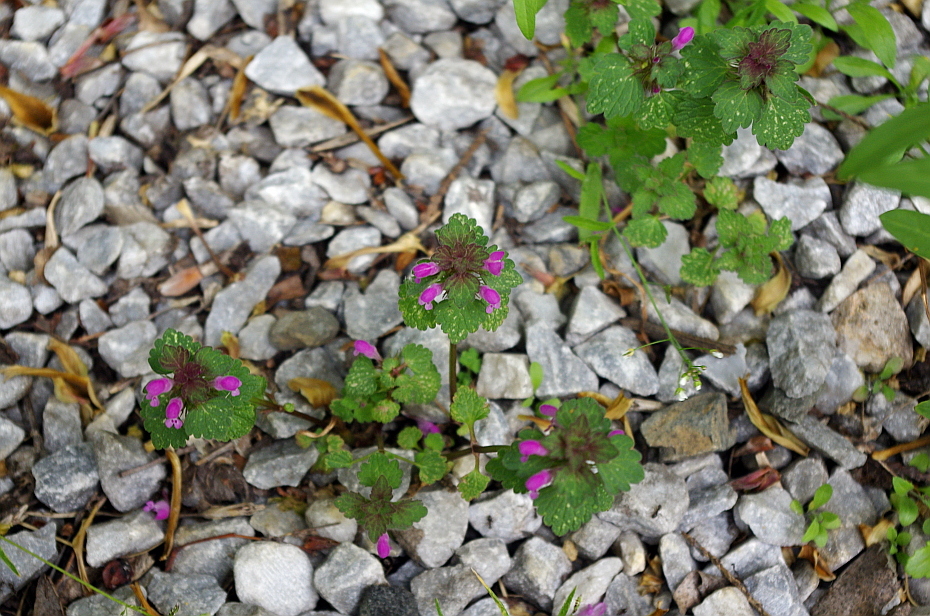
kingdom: Plantae
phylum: Tracheophyta
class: Magnoliopsida
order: Lamiales
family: Lamiaceae
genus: Lamium
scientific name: Lamium purpureum
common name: Red dead-nettle
